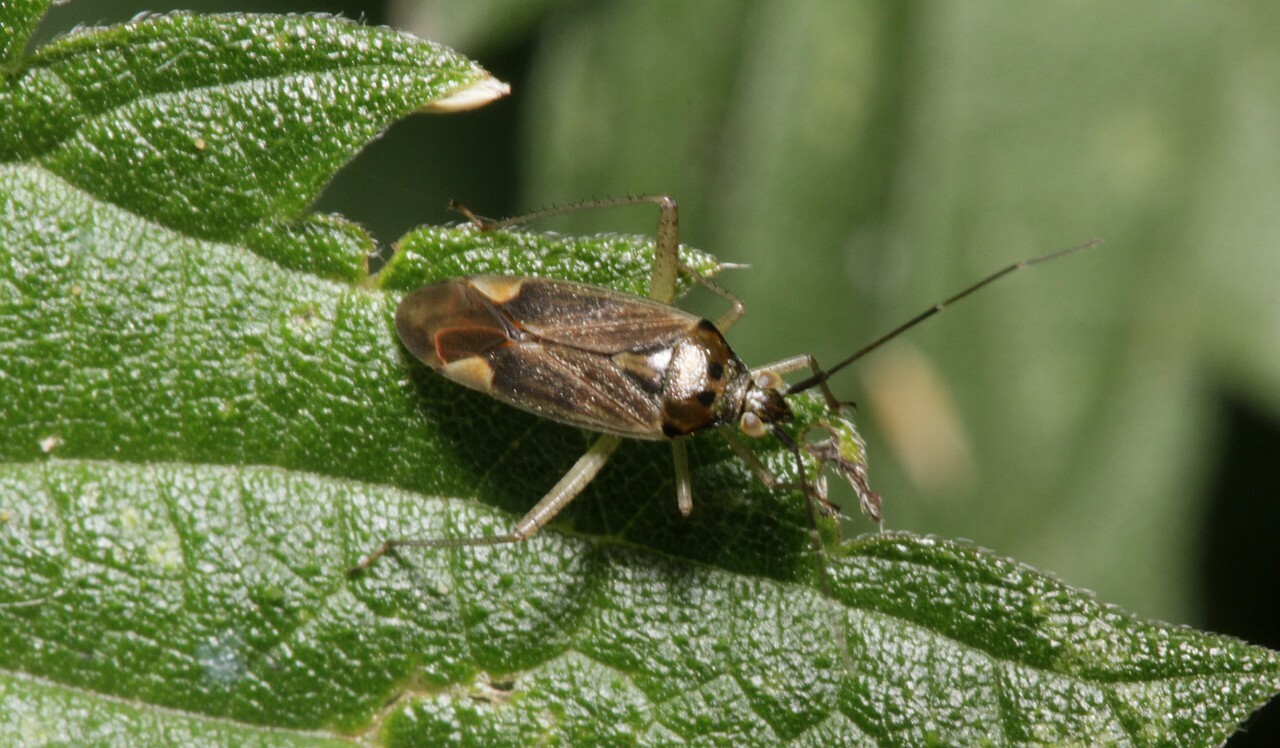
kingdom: Animalia
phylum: Arthropoda
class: Insecta
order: Hemiptera
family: Miridae
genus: Closterotomus
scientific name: Closterotomus trivialis
